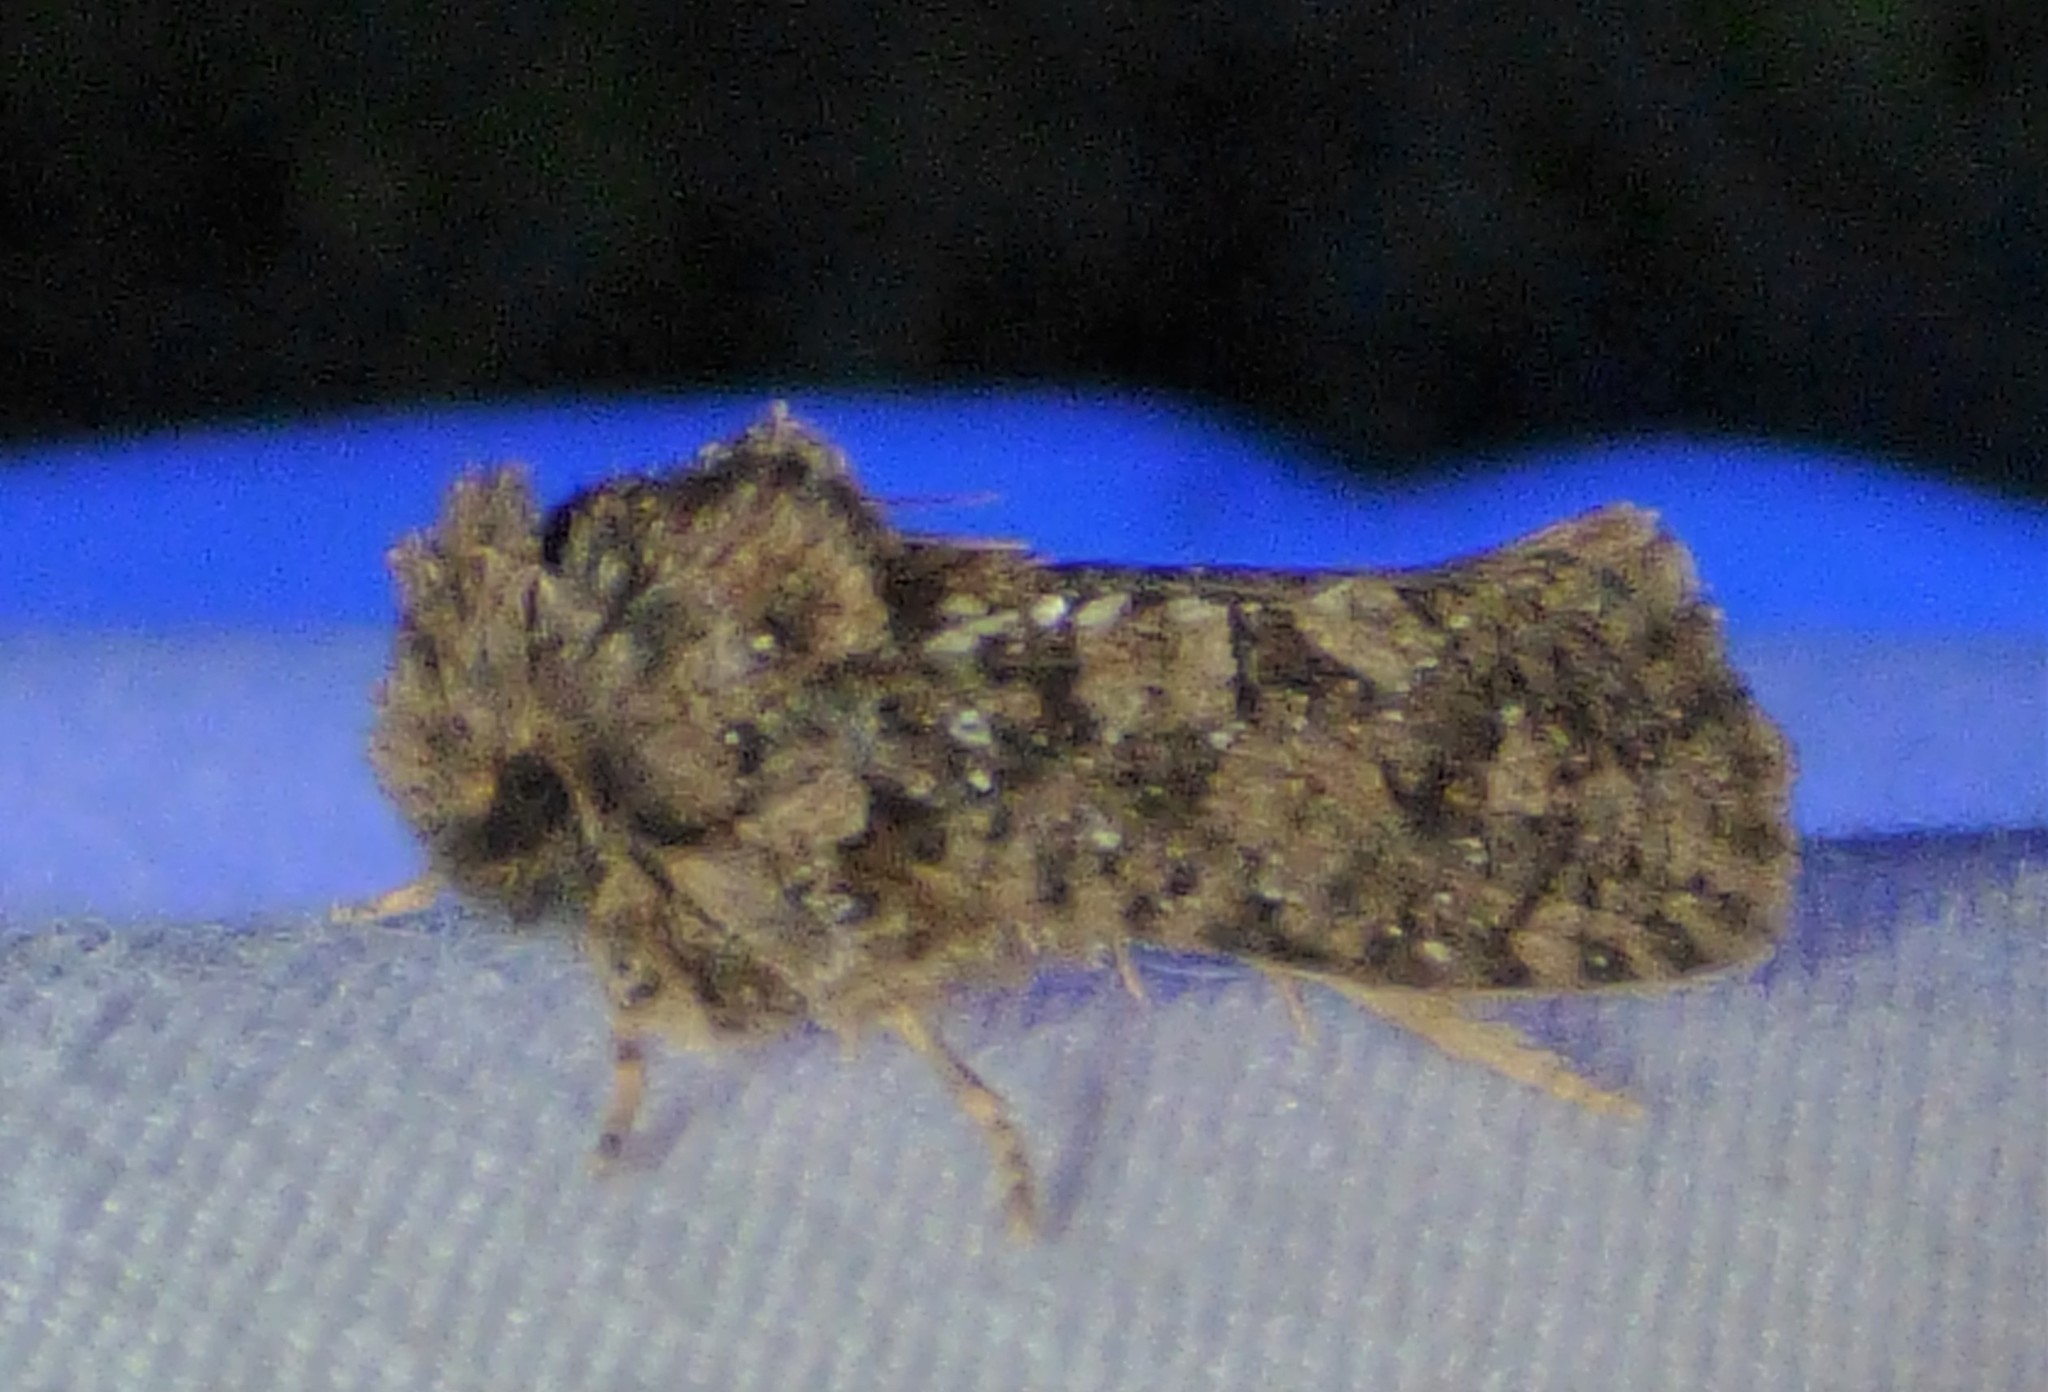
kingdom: Animalia
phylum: Arthropoda
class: Insecta
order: Lepidoptera
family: Tineidae
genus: Acrolophus
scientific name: Acrolophus arcanella
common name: Arcane grass tubeworm moth
